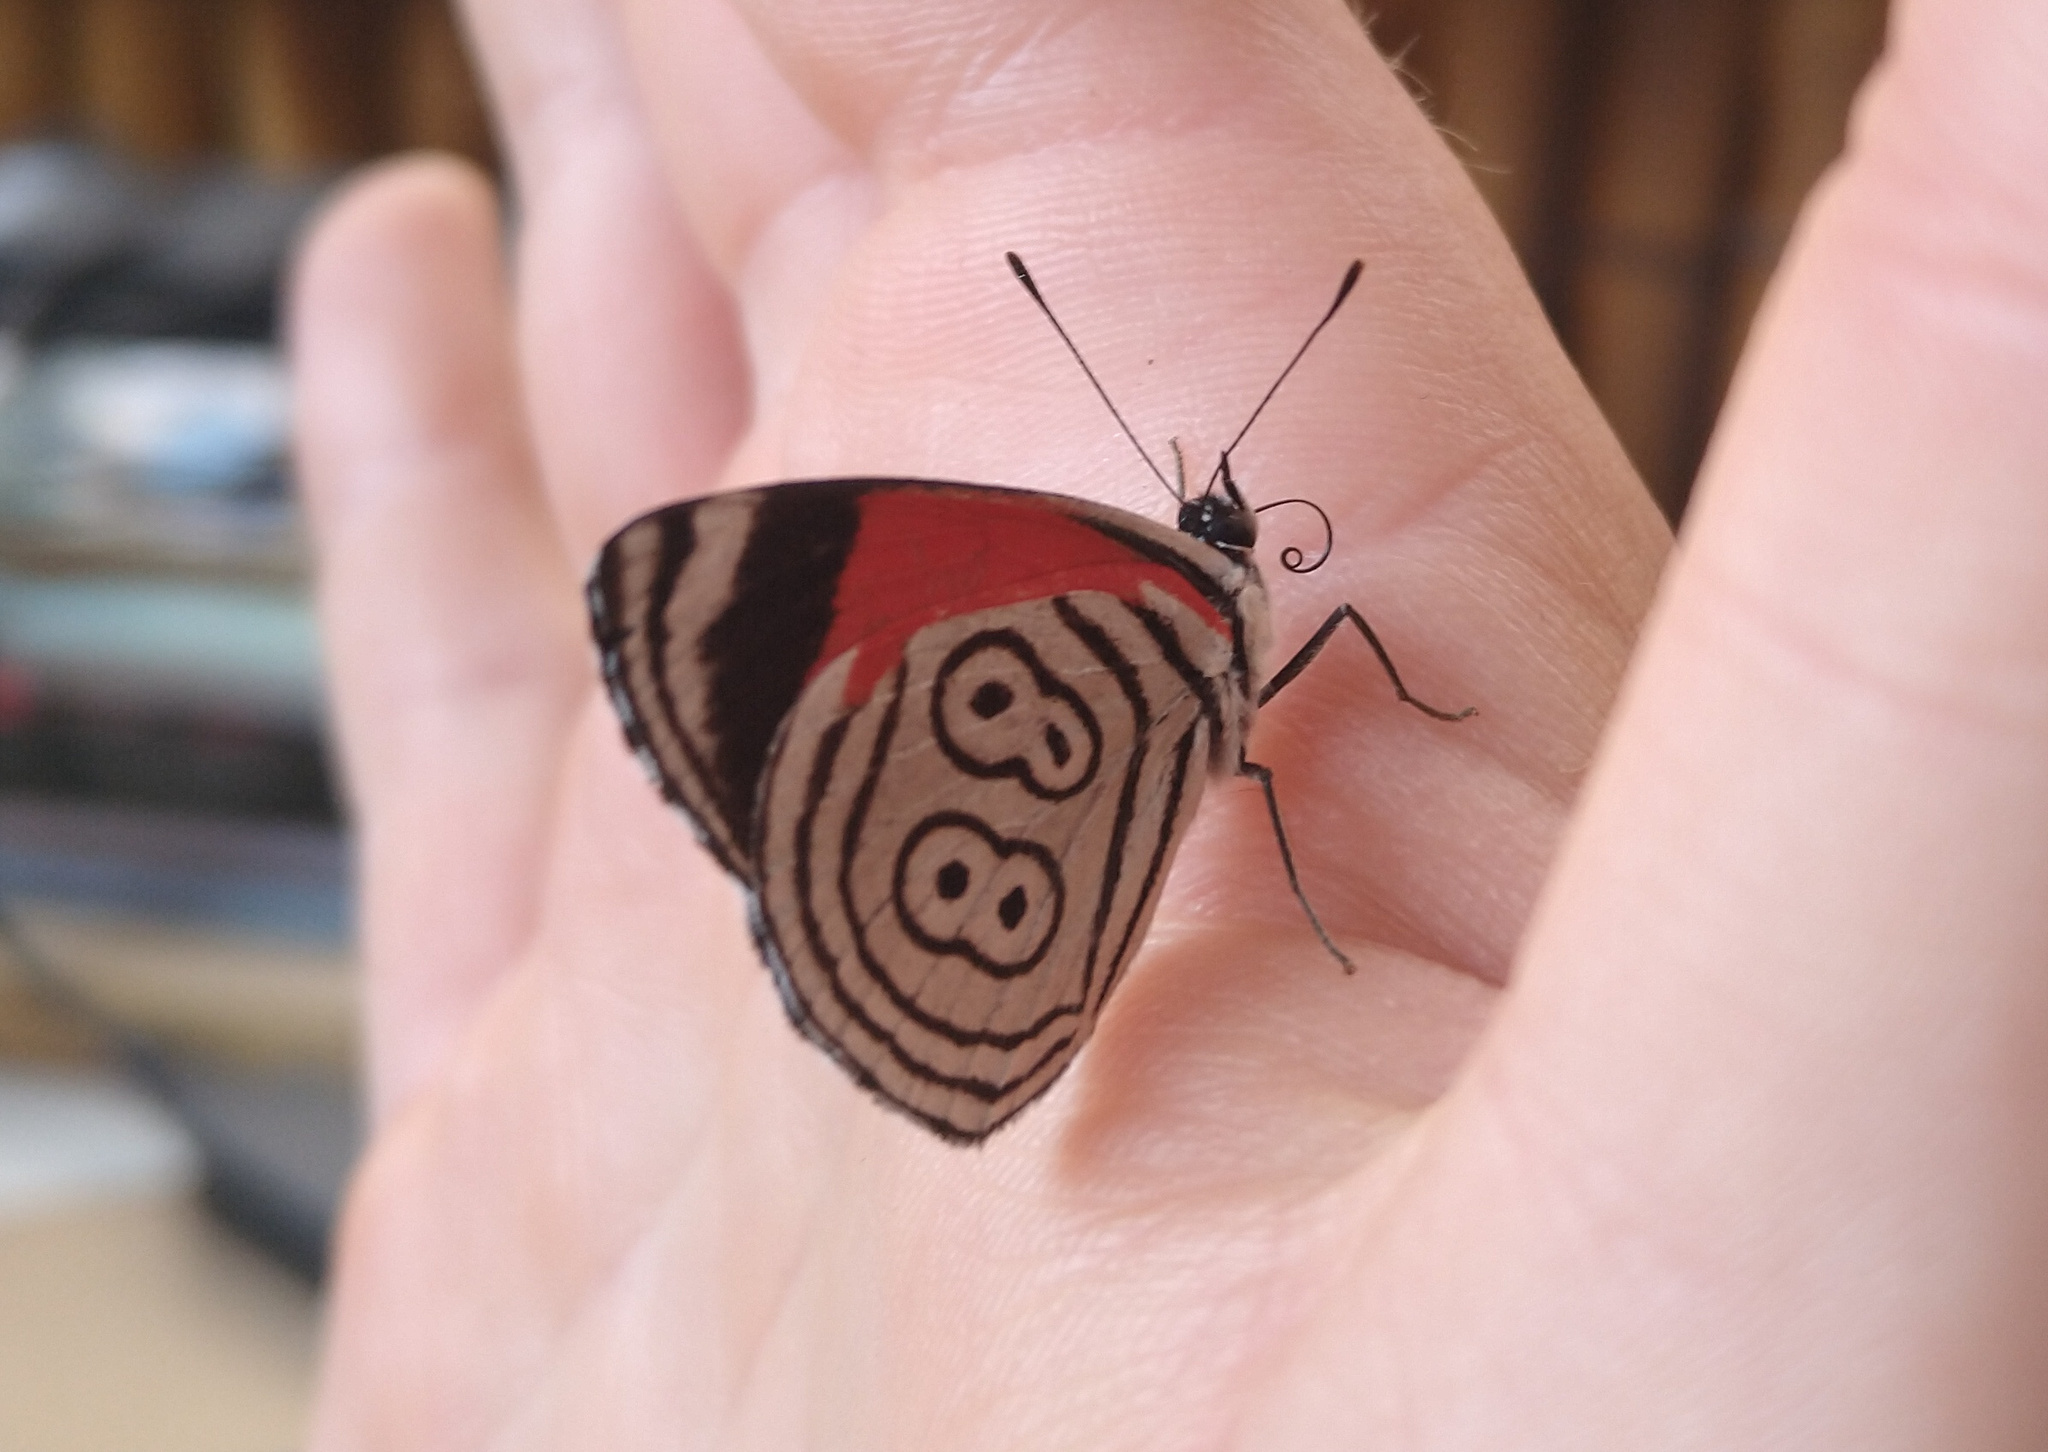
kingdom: Animalia
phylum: Arthropoda
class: Insecta
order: Lepidoptera
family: Nymphalidae
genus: Diaethria
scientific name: Diaethria clymena
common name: Widespread eighty-eight
